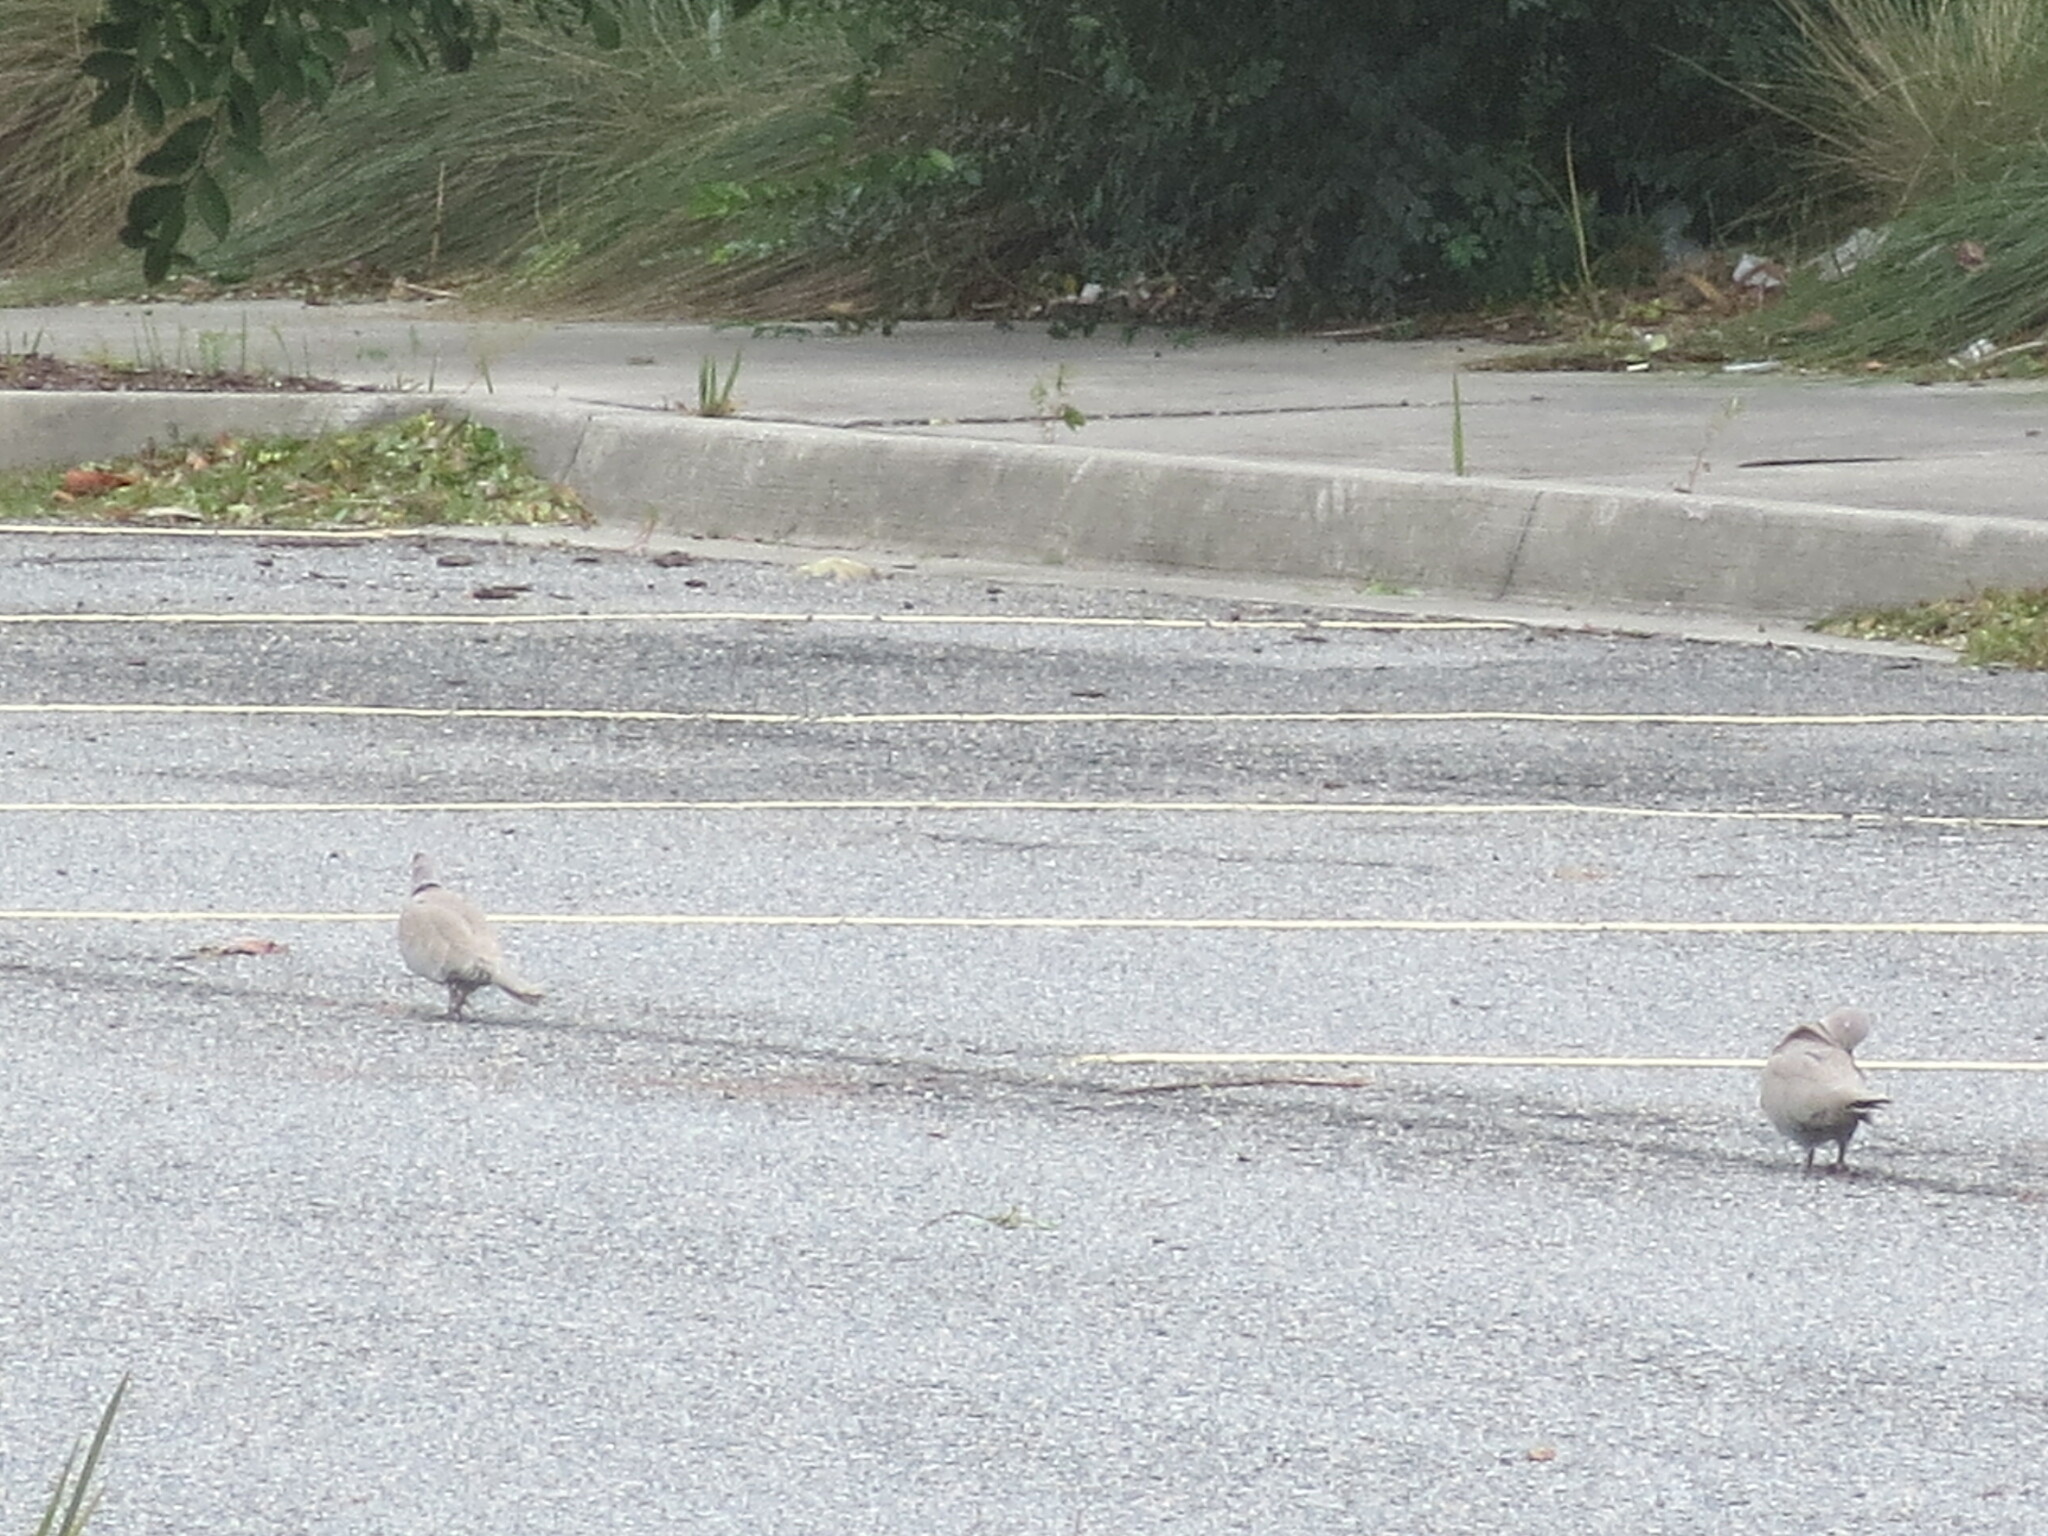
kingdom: Animalia
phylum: Chordata
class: Aves
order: Columbiformes
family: Columbidae
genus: Streptopelia
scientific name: Streptopelia decaocto
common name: Eurasian collared dove
